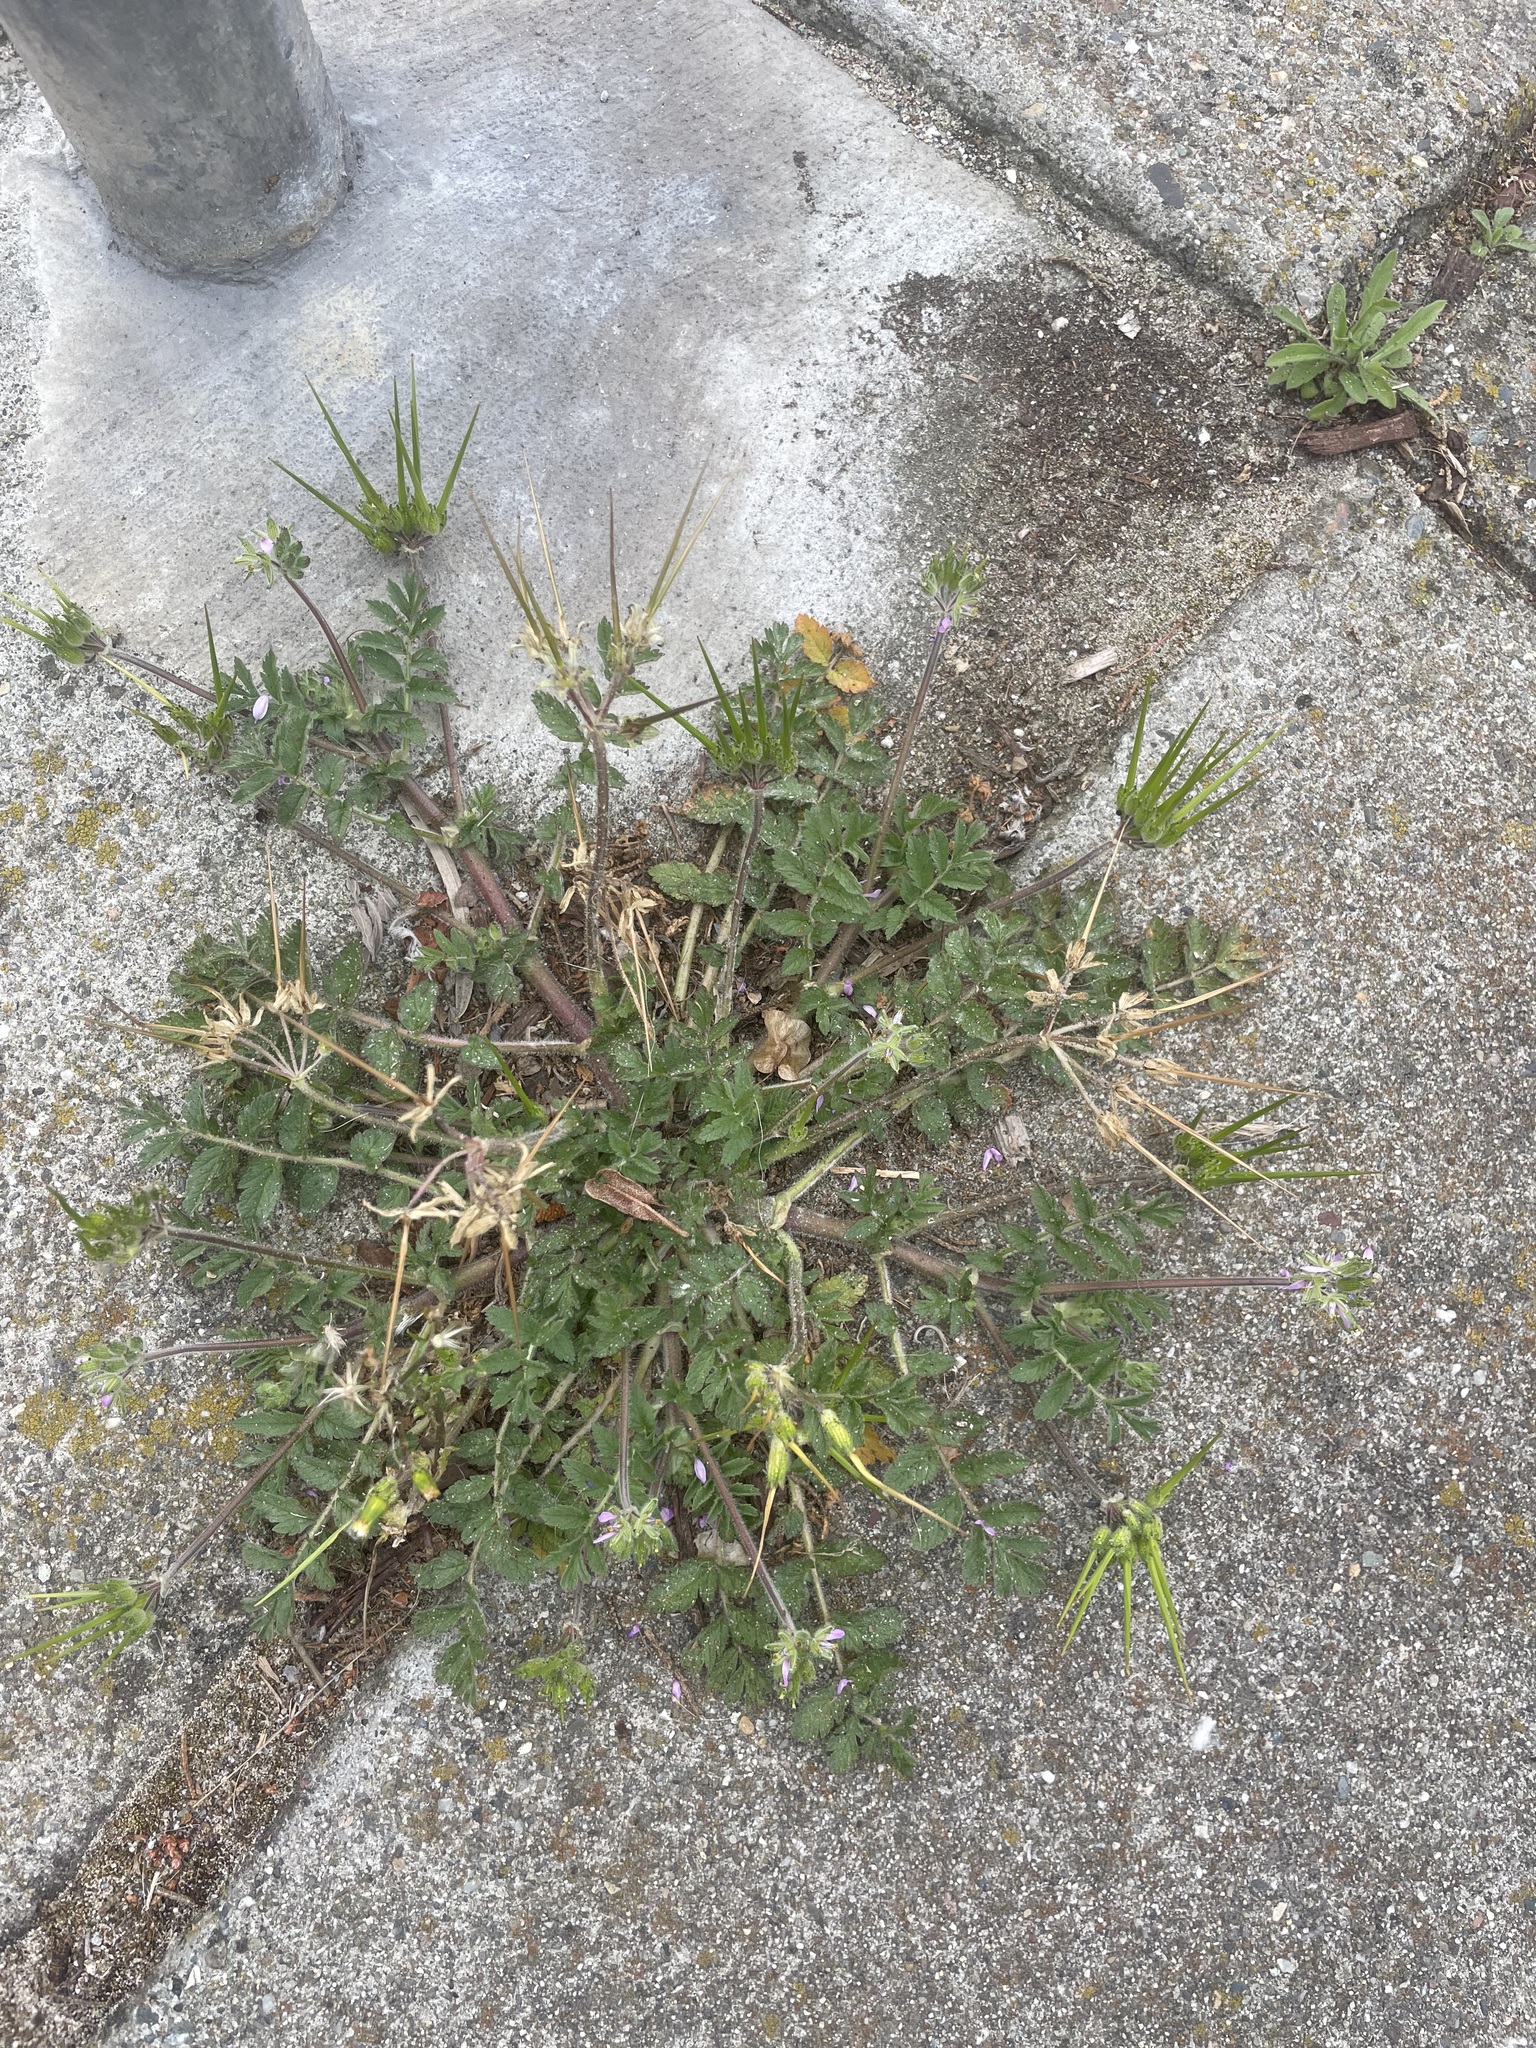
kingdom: Plantae
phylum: Tracheophyta
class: Magnoliopsida
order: Geraniales
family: Geraniaceae
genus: Erodium
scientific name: Erodium moschatum
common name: Musk stork's-bill
